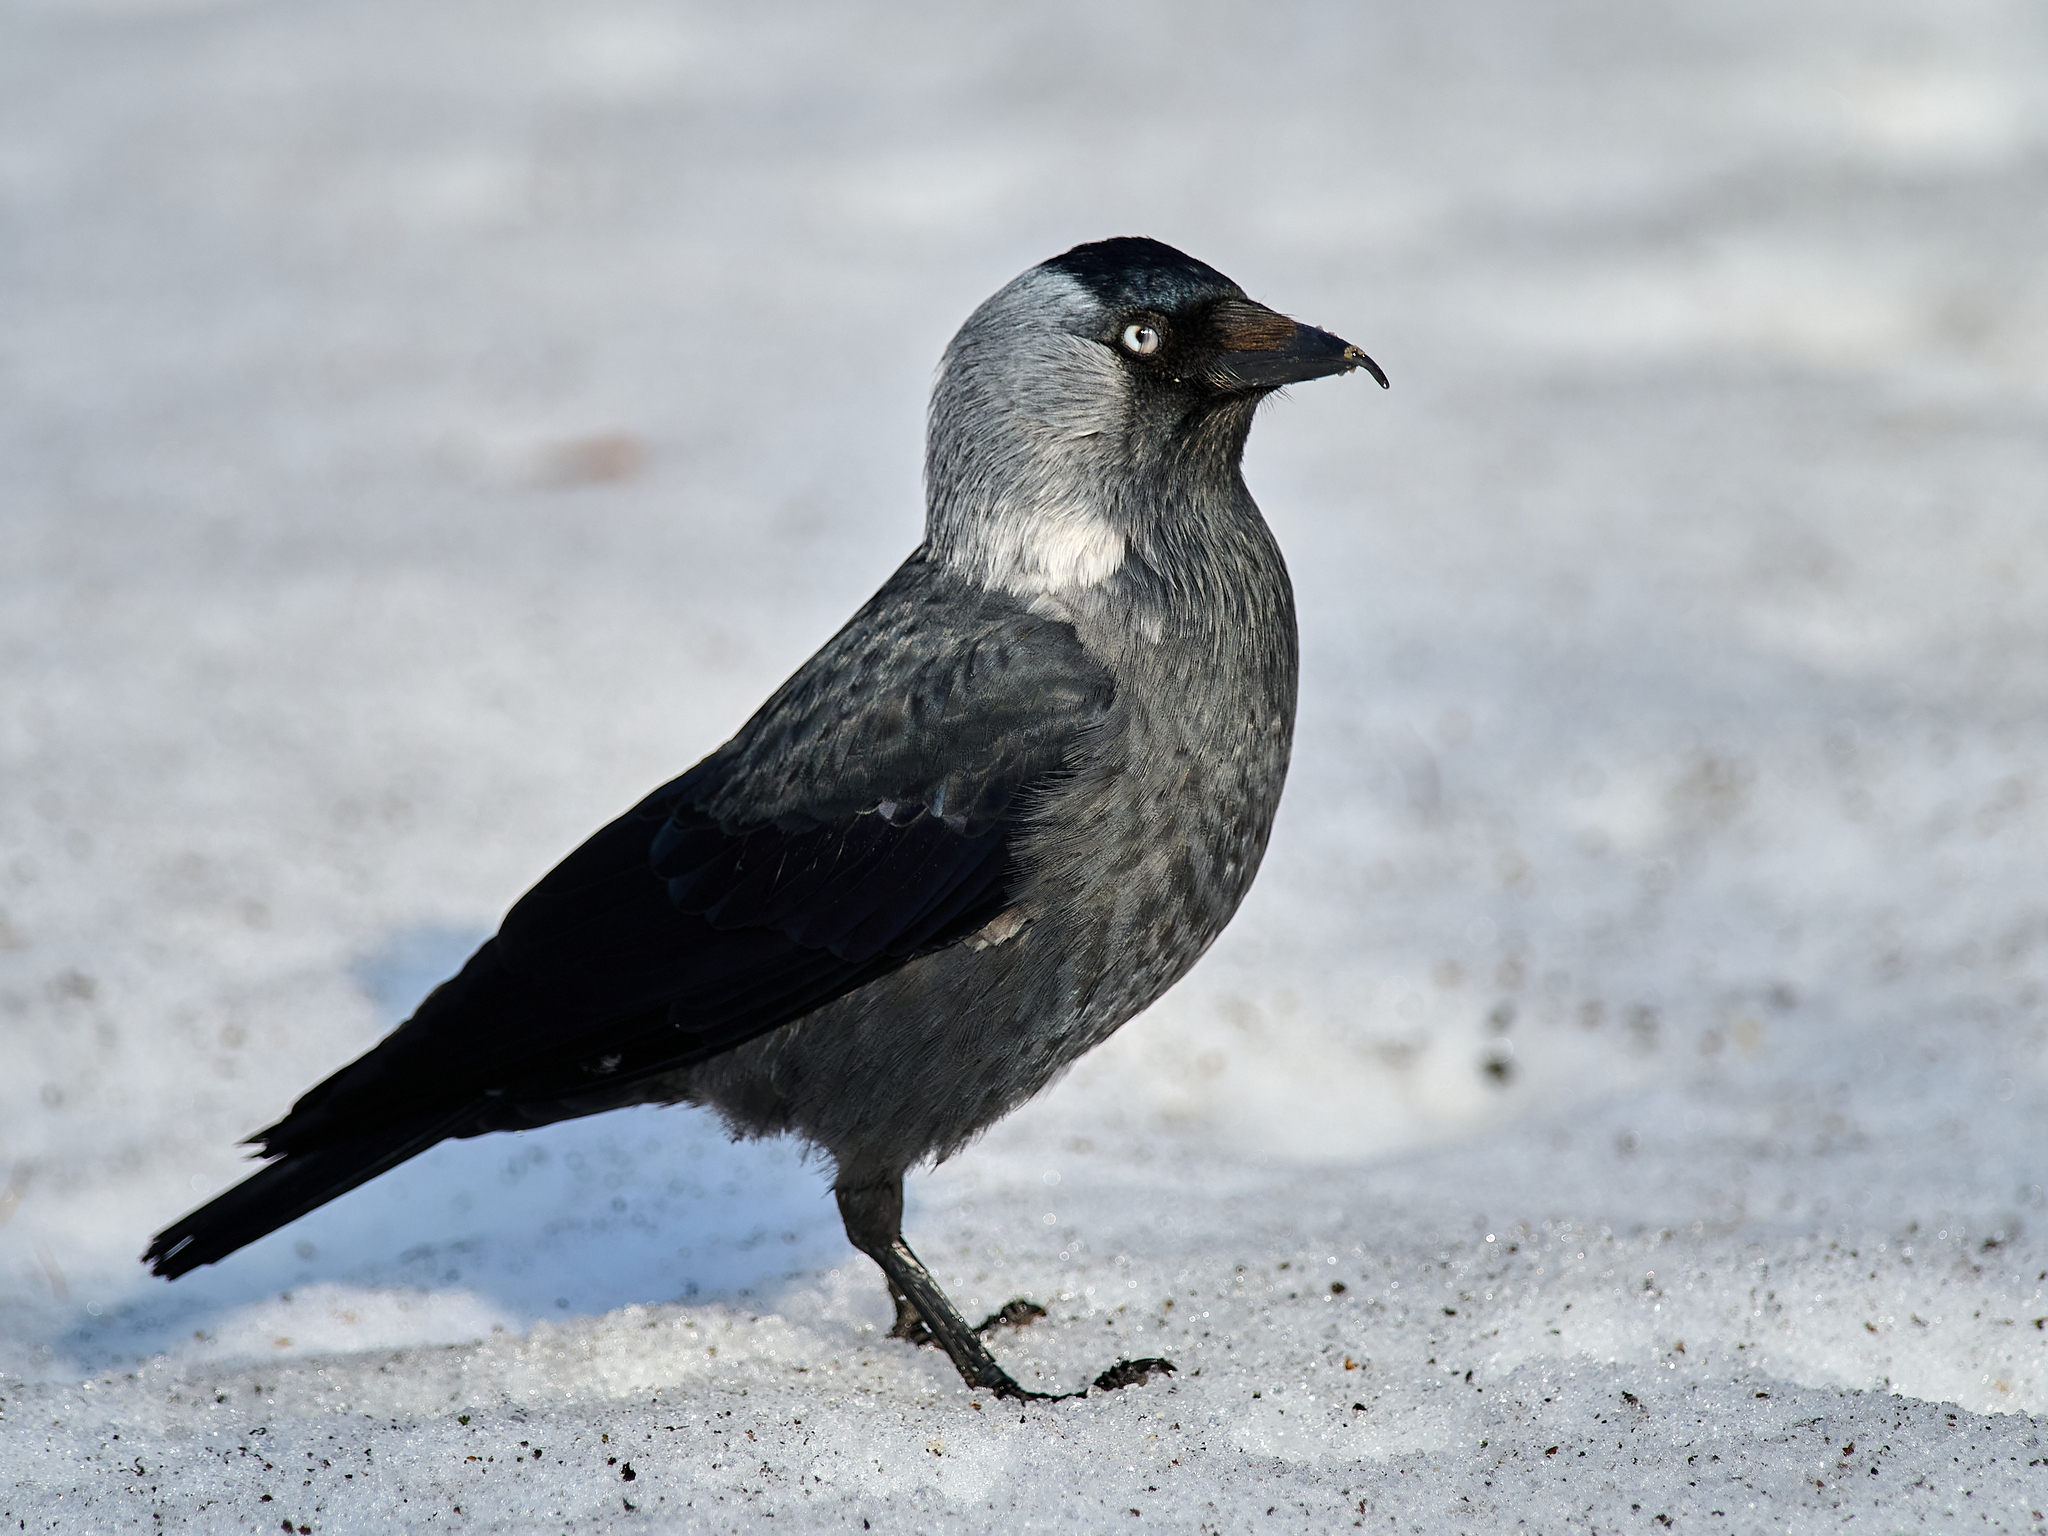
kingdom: Animalia
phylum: Chordata
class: Aves
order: Passeriformes
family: Corvidae
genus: Coloeus
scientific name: Coloeus monedula
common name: Western jackdaw
